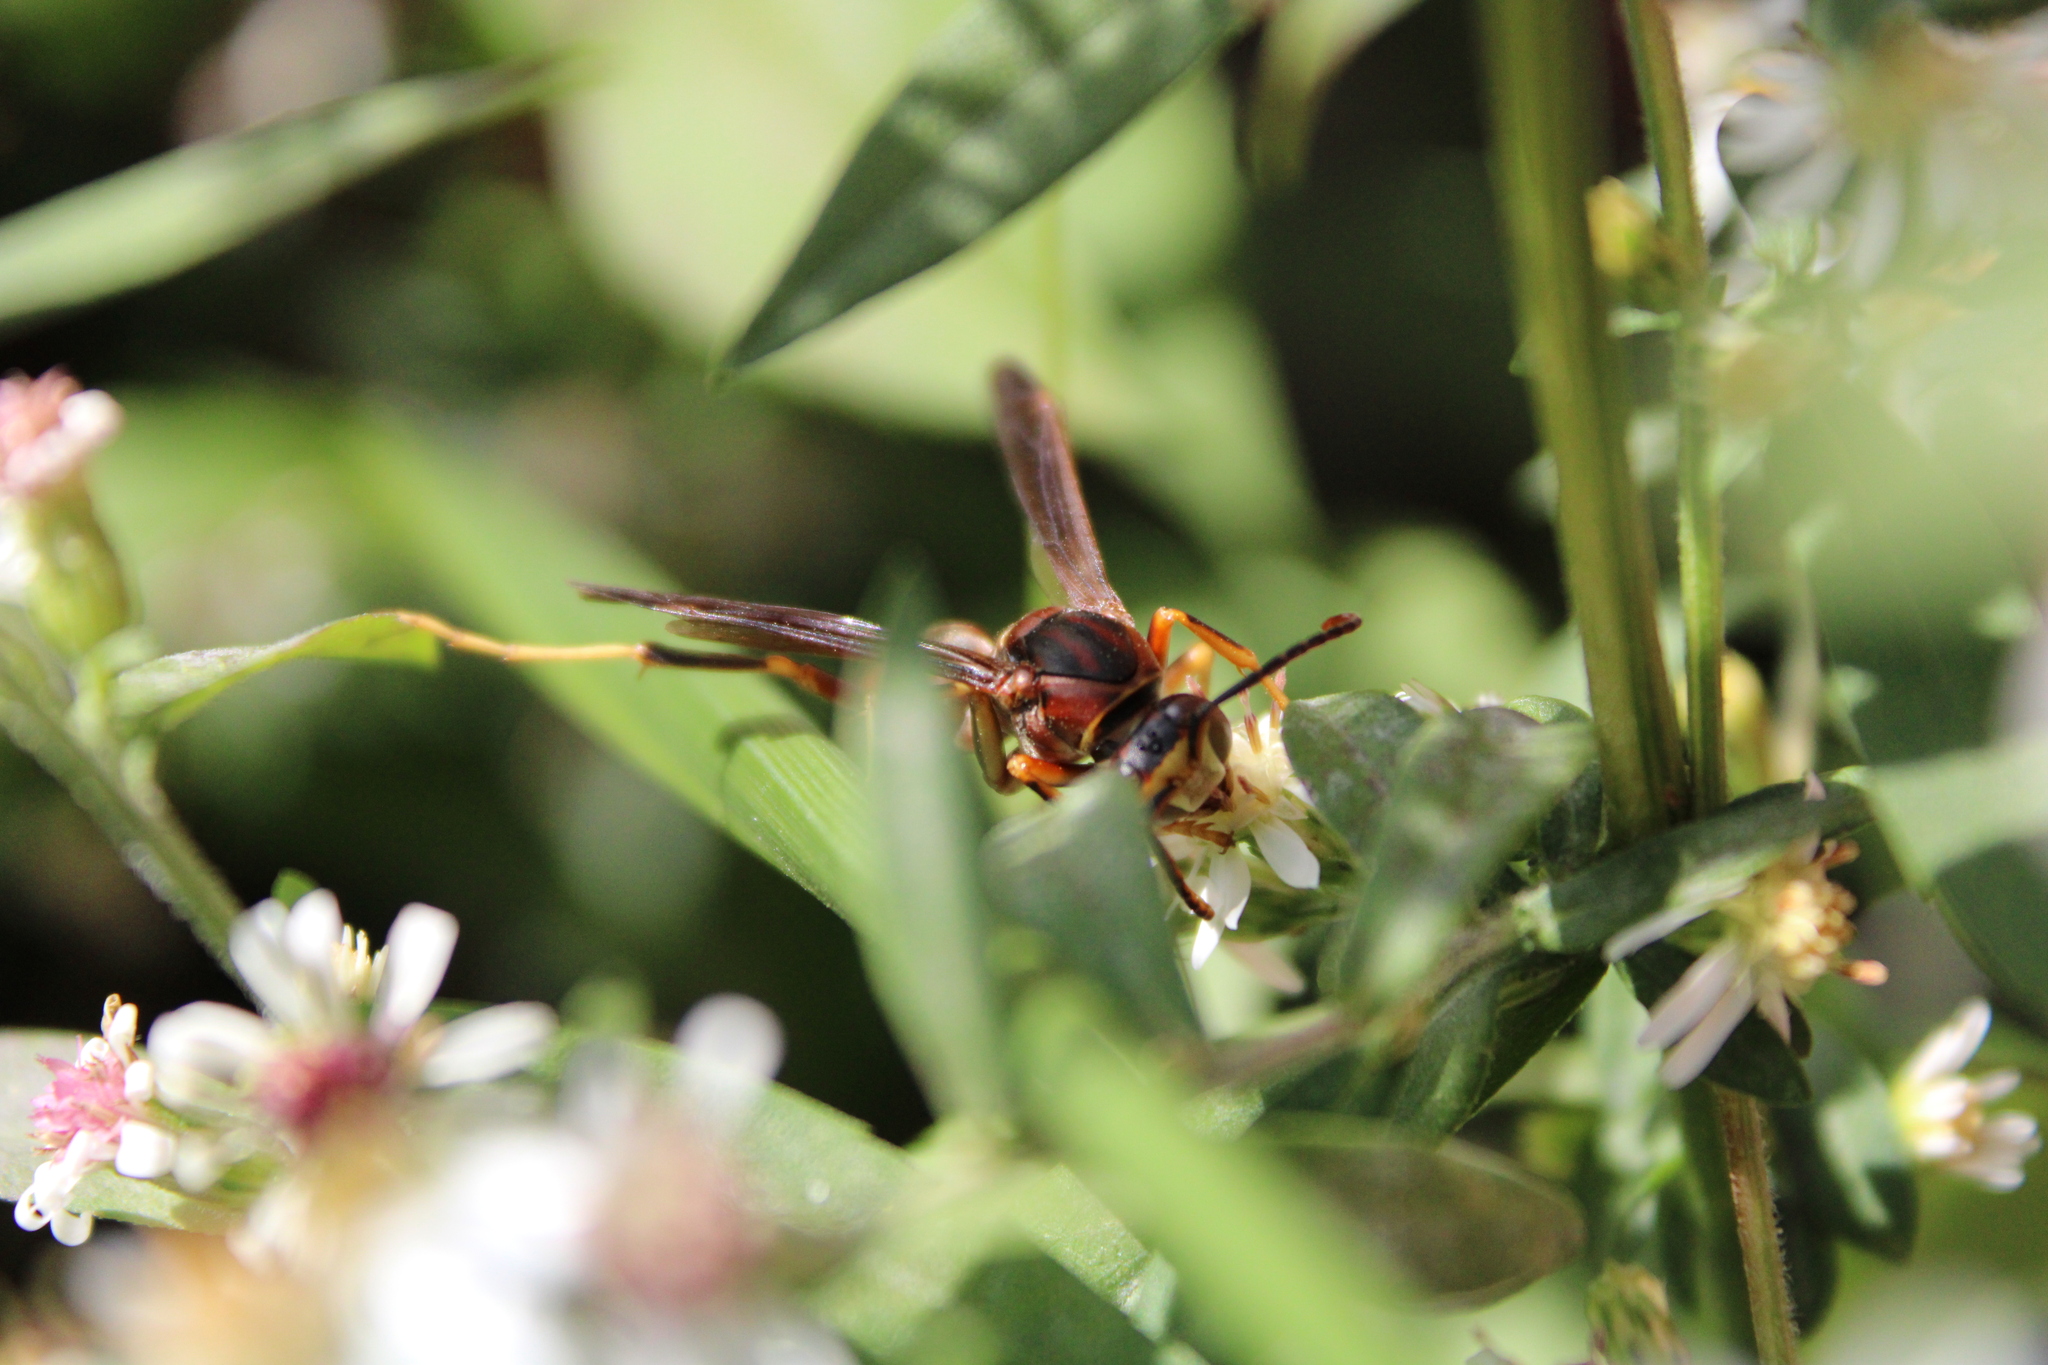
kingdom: Animalia
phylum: Arthropoda
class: Insecta
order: Hymenoptera
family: Vespidae
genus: Fuscopolistes
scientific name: Fuscopolistes
